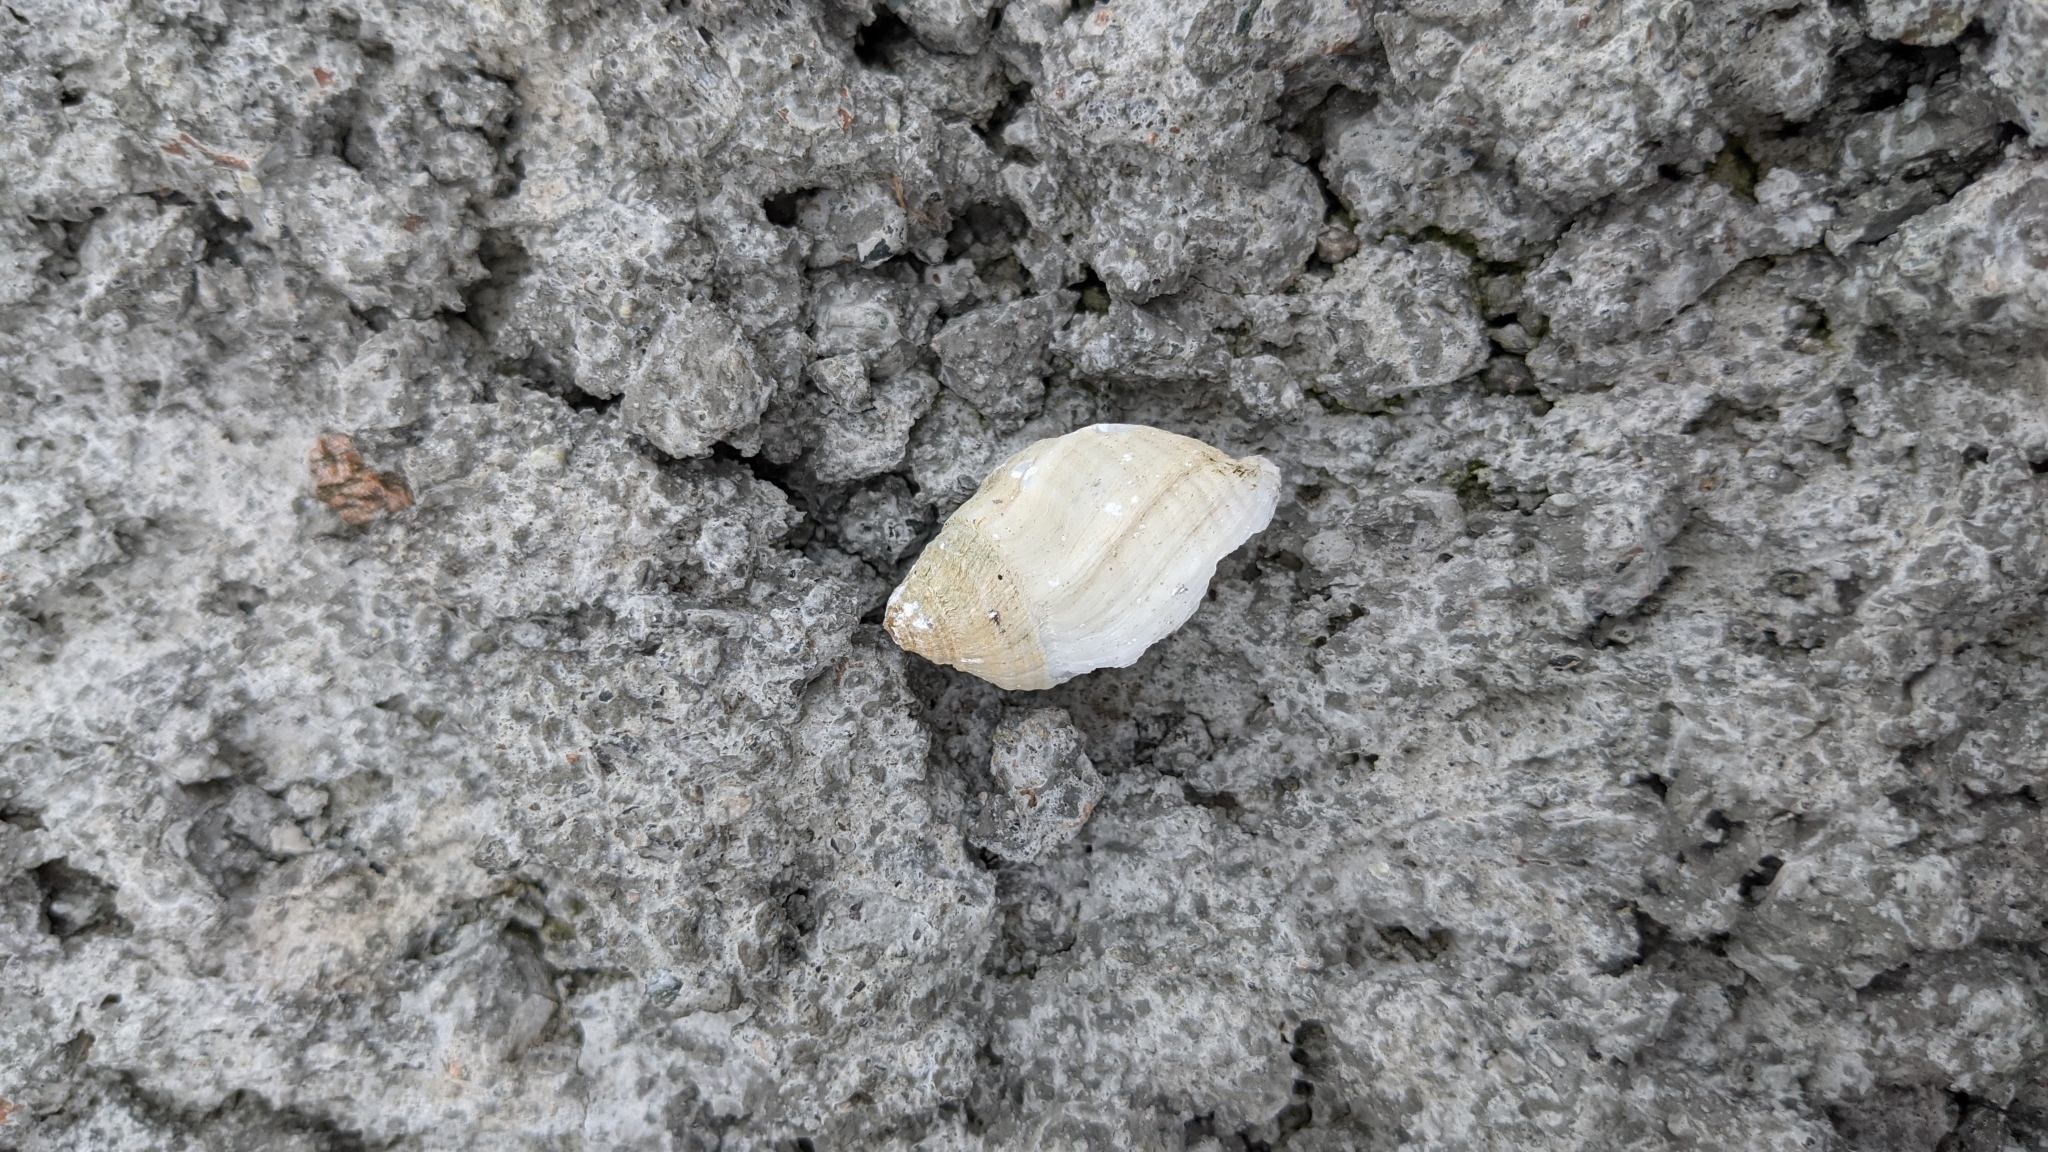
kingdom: Animalia
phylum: Mollusca
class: Gastropoda
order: Neogastropoda
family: Muricidae
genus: Nucella
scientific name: Nucella lapillus
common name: Dog whelk
